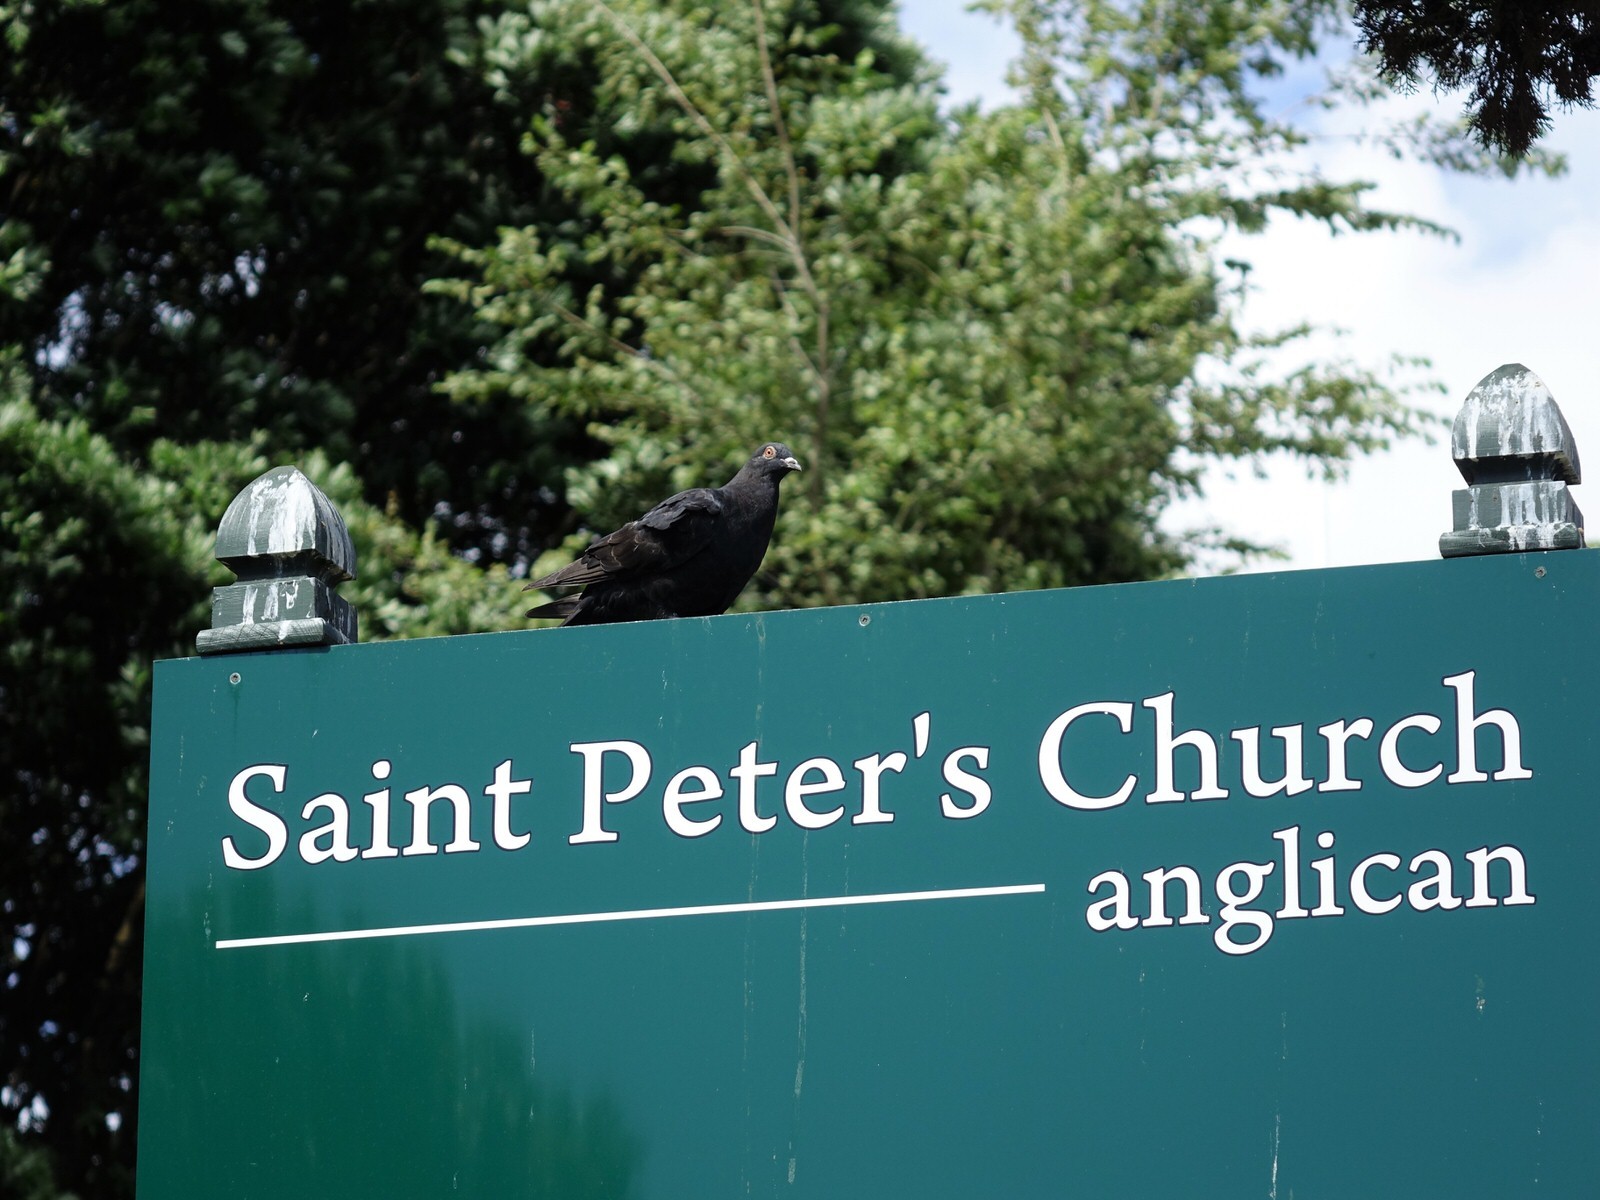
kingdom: Animalia
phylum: Chordata
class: Aves
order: Columbiformes
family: Columbidae
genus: Columba
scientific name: Columba livia
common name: Rock pigeon
